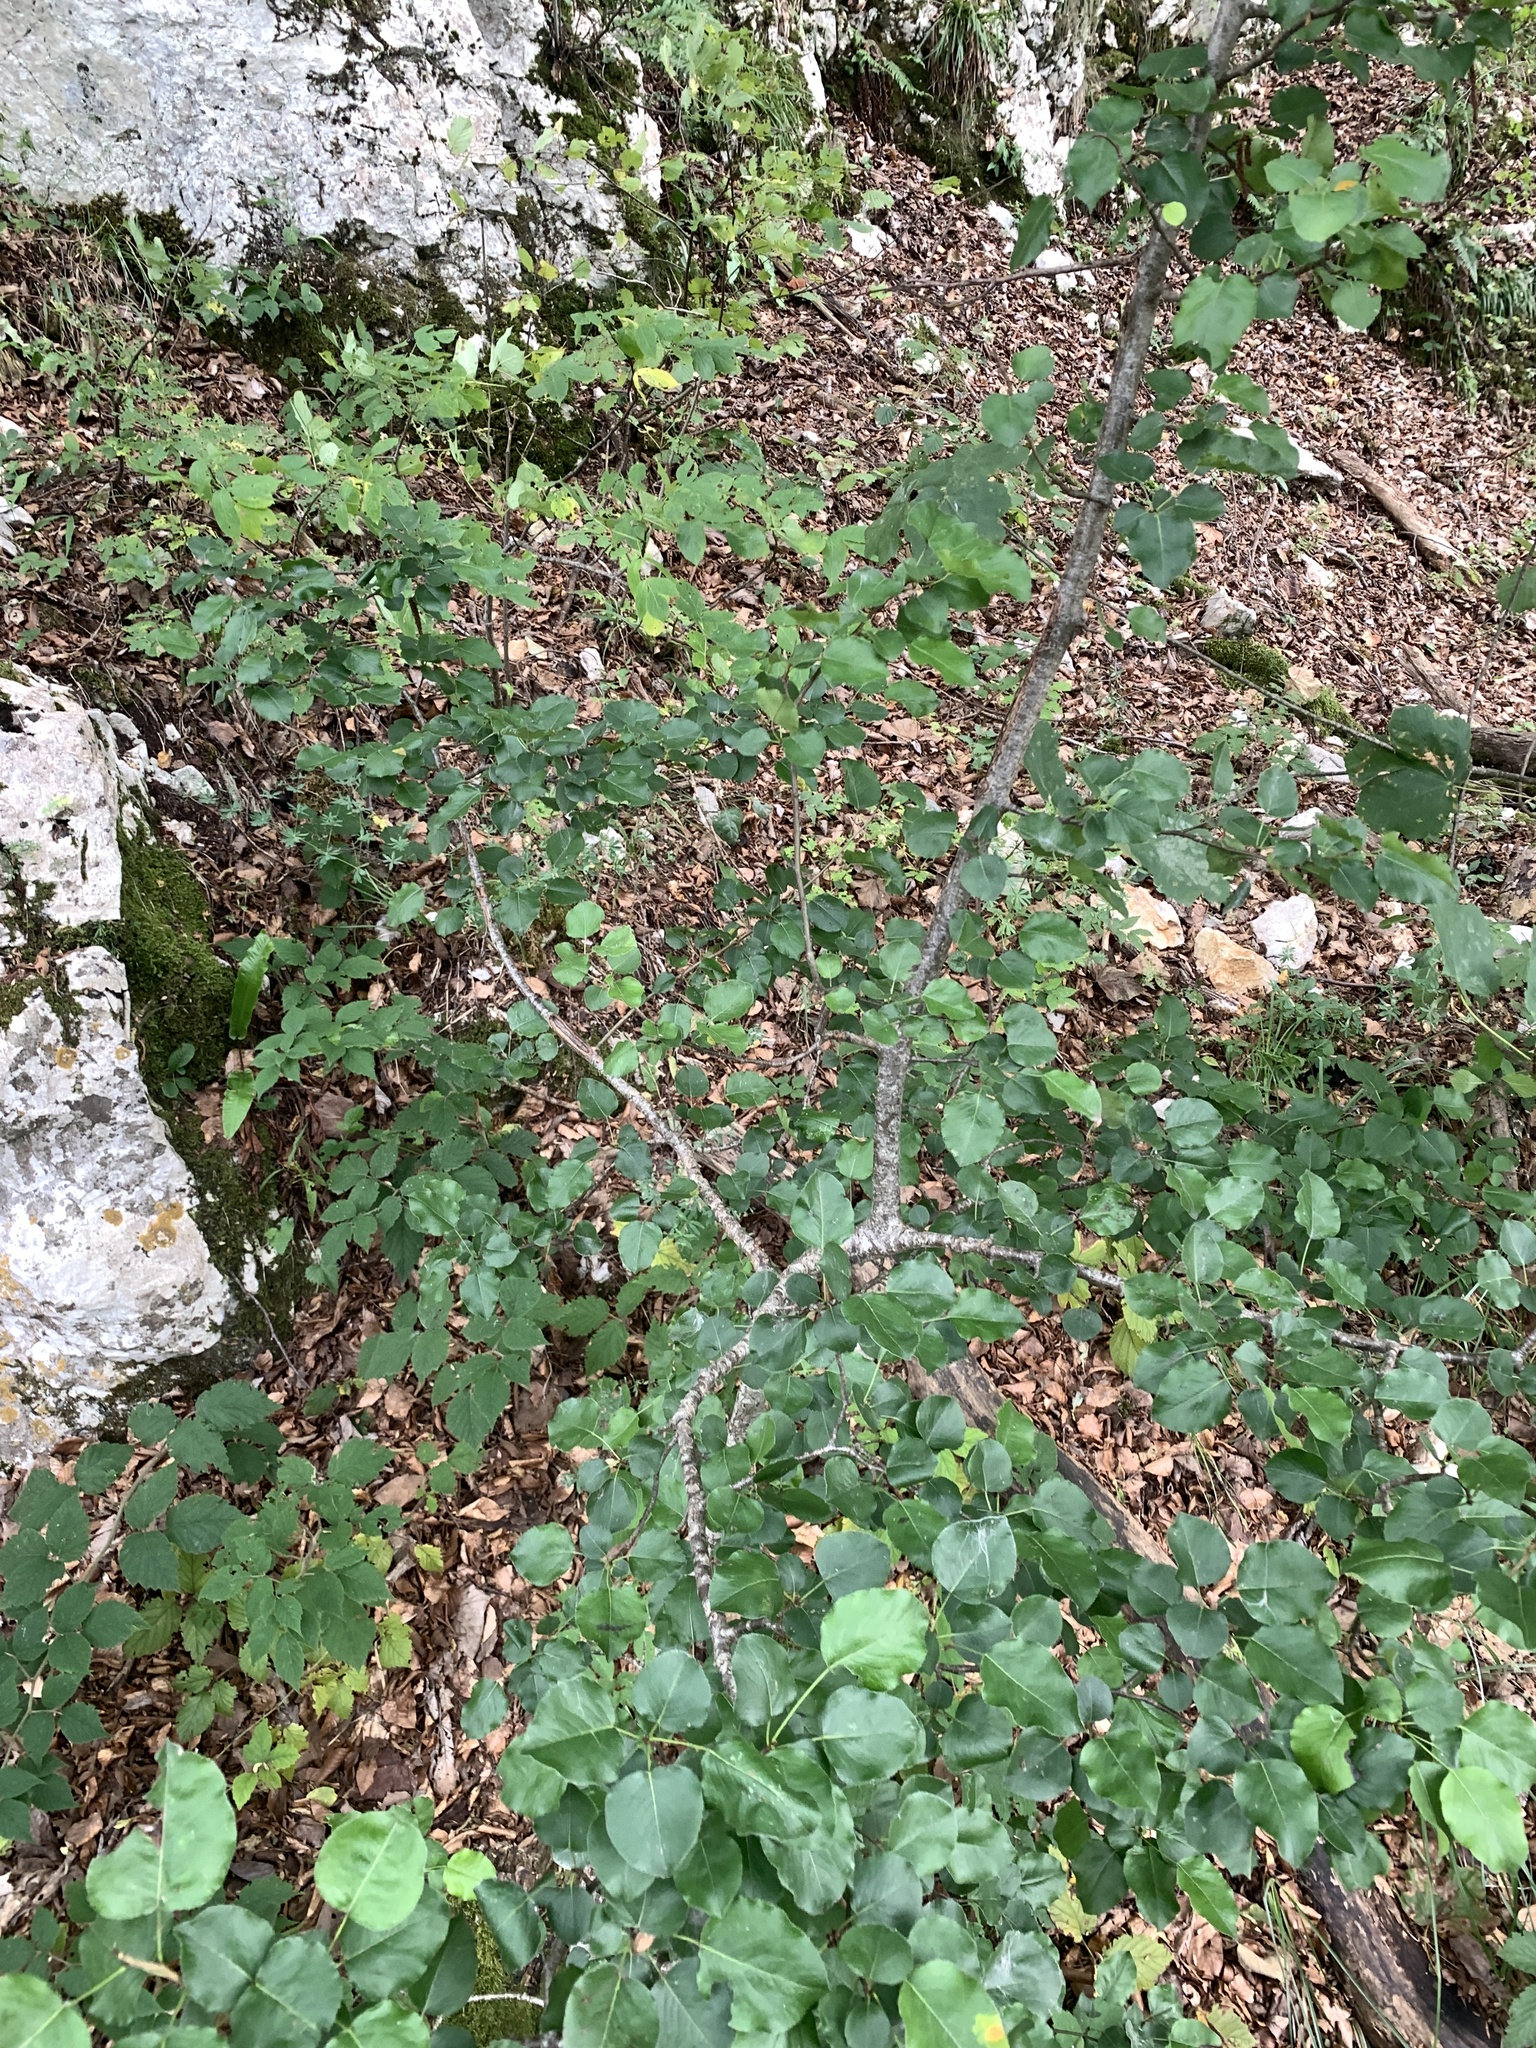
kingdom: Plantae
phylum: Tracheophyta
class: Magnoliopsida
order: Rosales
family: Rosaceae
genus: Pyrus
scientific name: Pyrus
